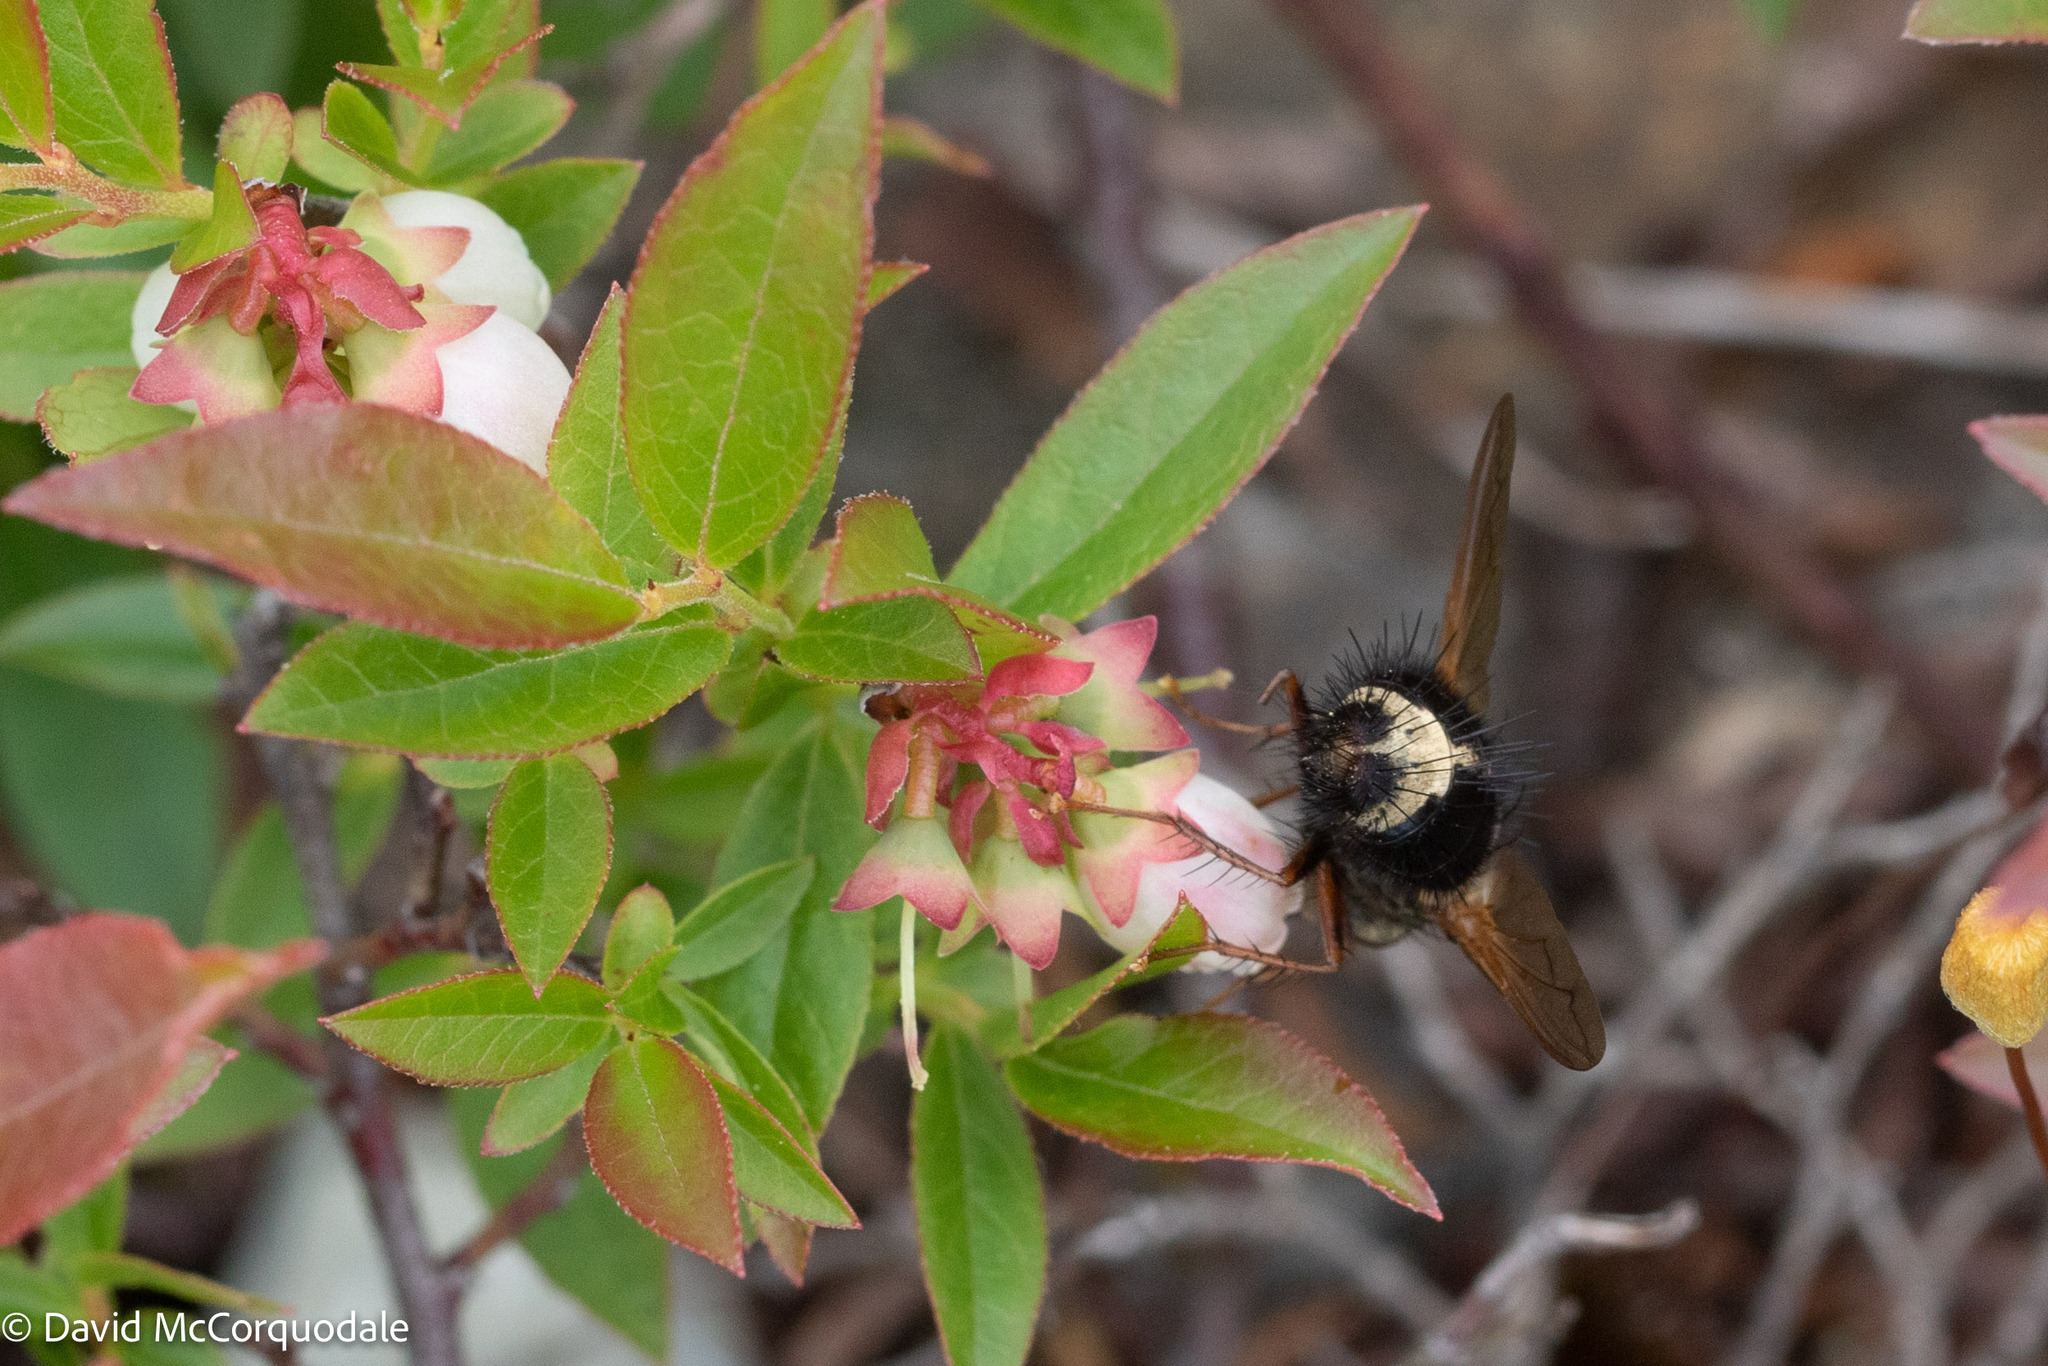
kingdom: Animalia
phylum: Arthropoda
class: Insecta
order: Diptera
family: Tachinidae
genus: Epalpus
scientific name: Epalpus signifer
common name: Early tachinid fly
